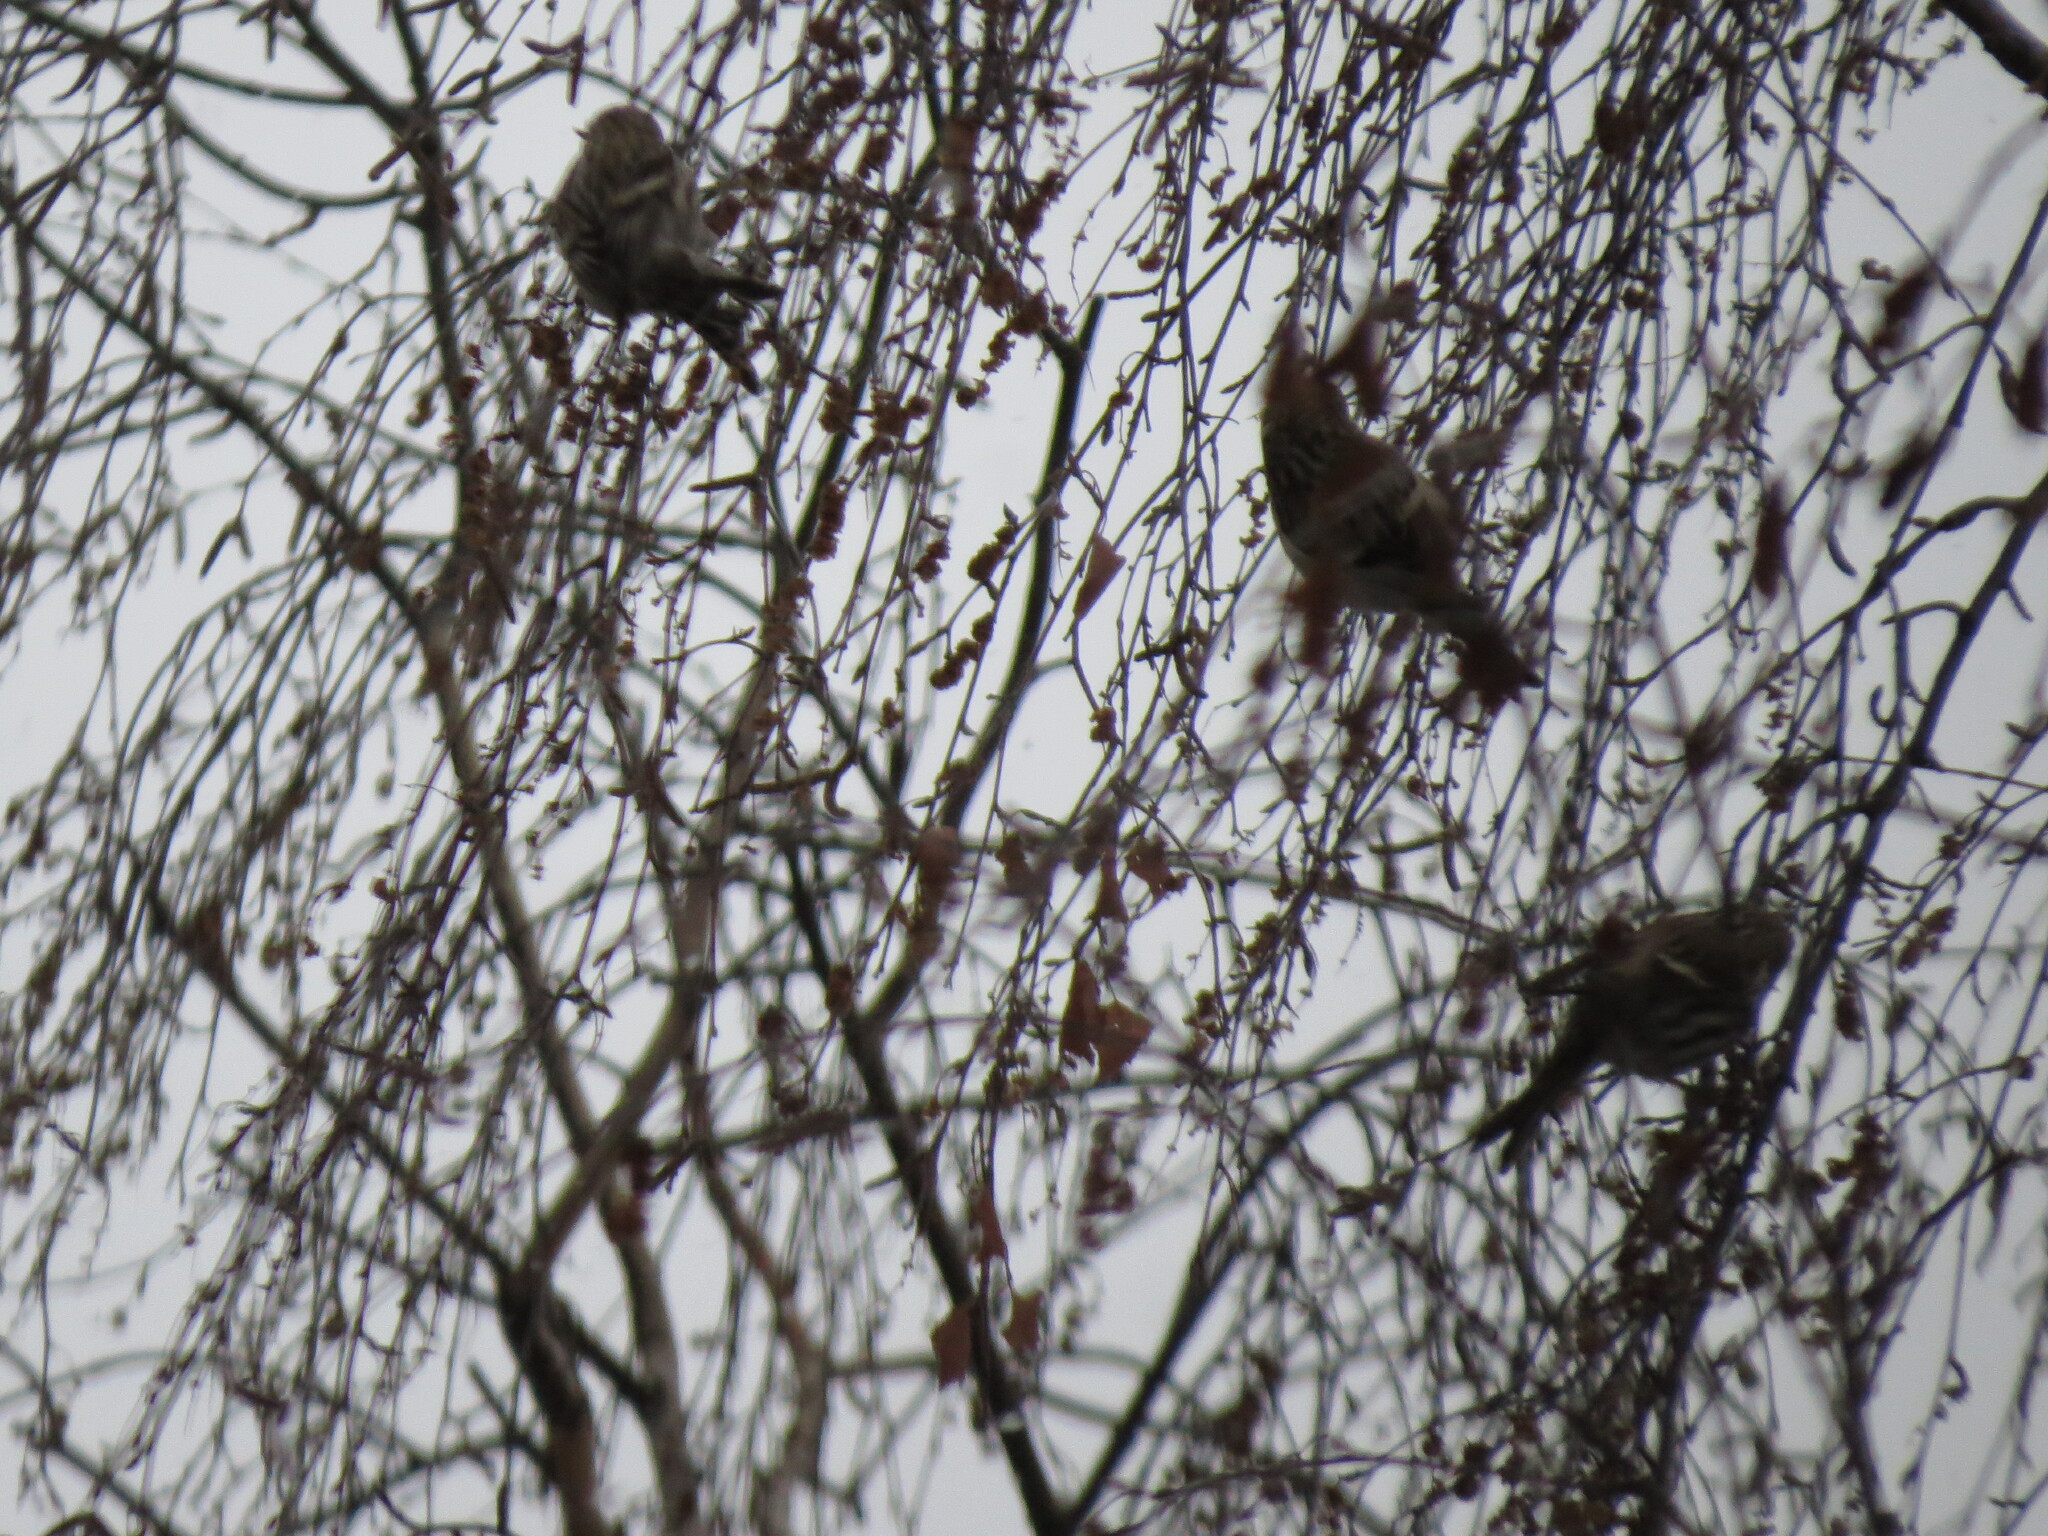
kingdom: Animalia
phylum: Chordata
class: Aves
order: Passeriformes
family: Fringillidae
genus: Acanthis
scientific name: Acanthis flammea
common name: Common redpoll
